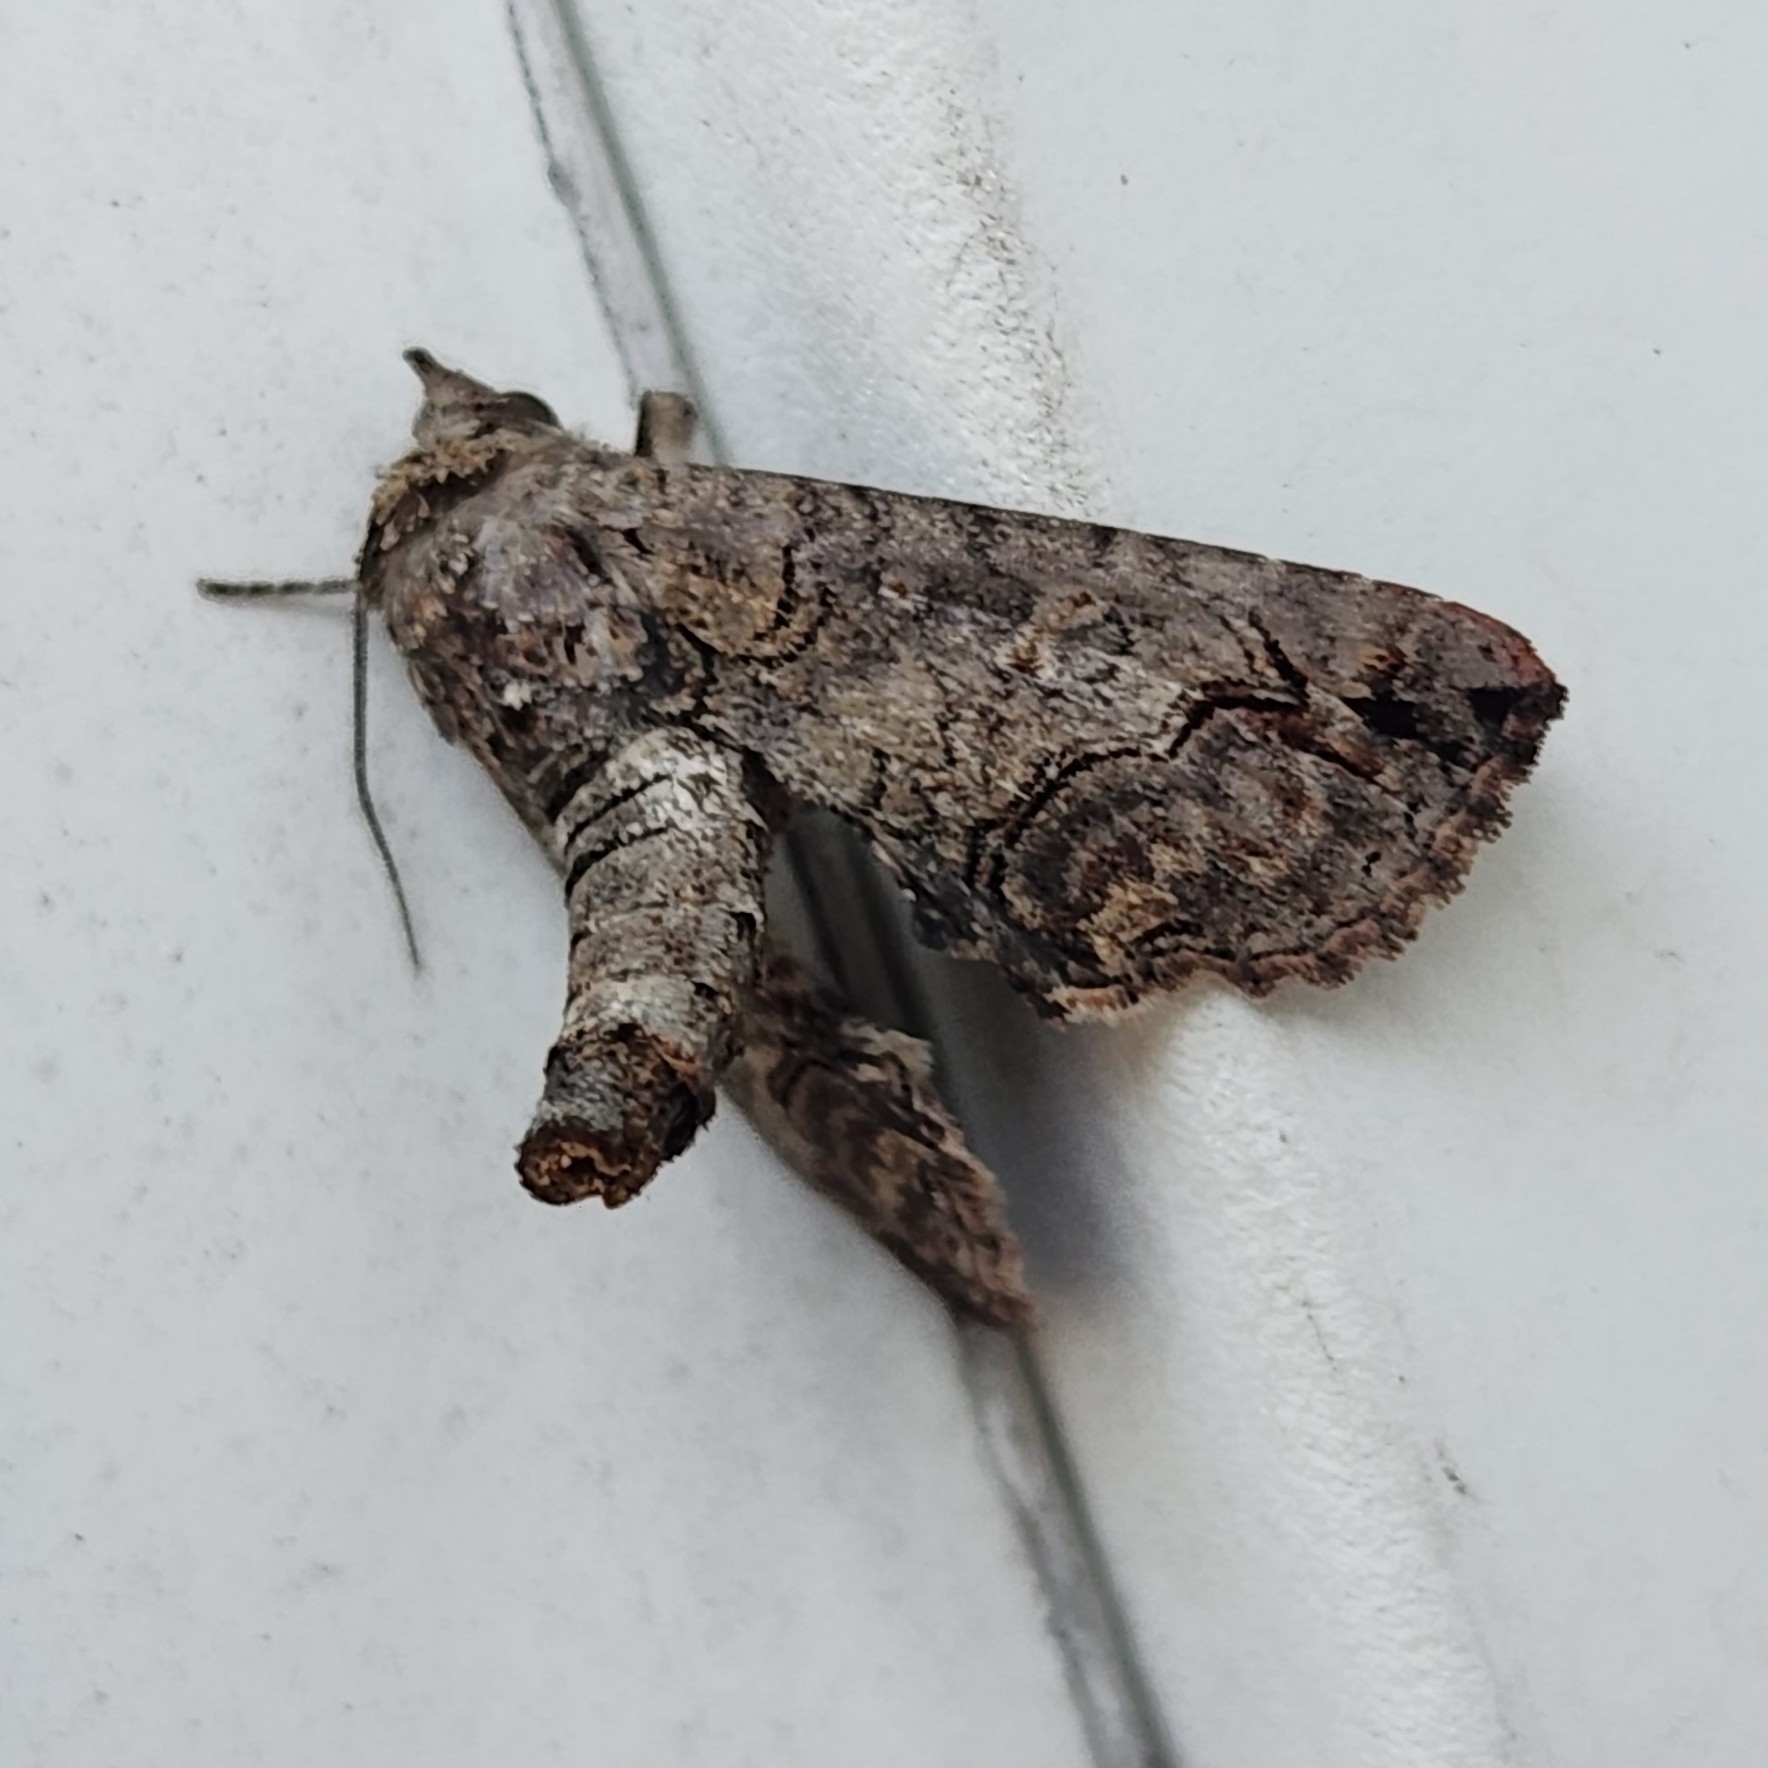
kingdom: Animalia
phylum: Arthropoda
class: Insecta
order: Lepidoptera
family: Euteliidae
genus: Paectes
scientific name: Paectes abrostoloides
